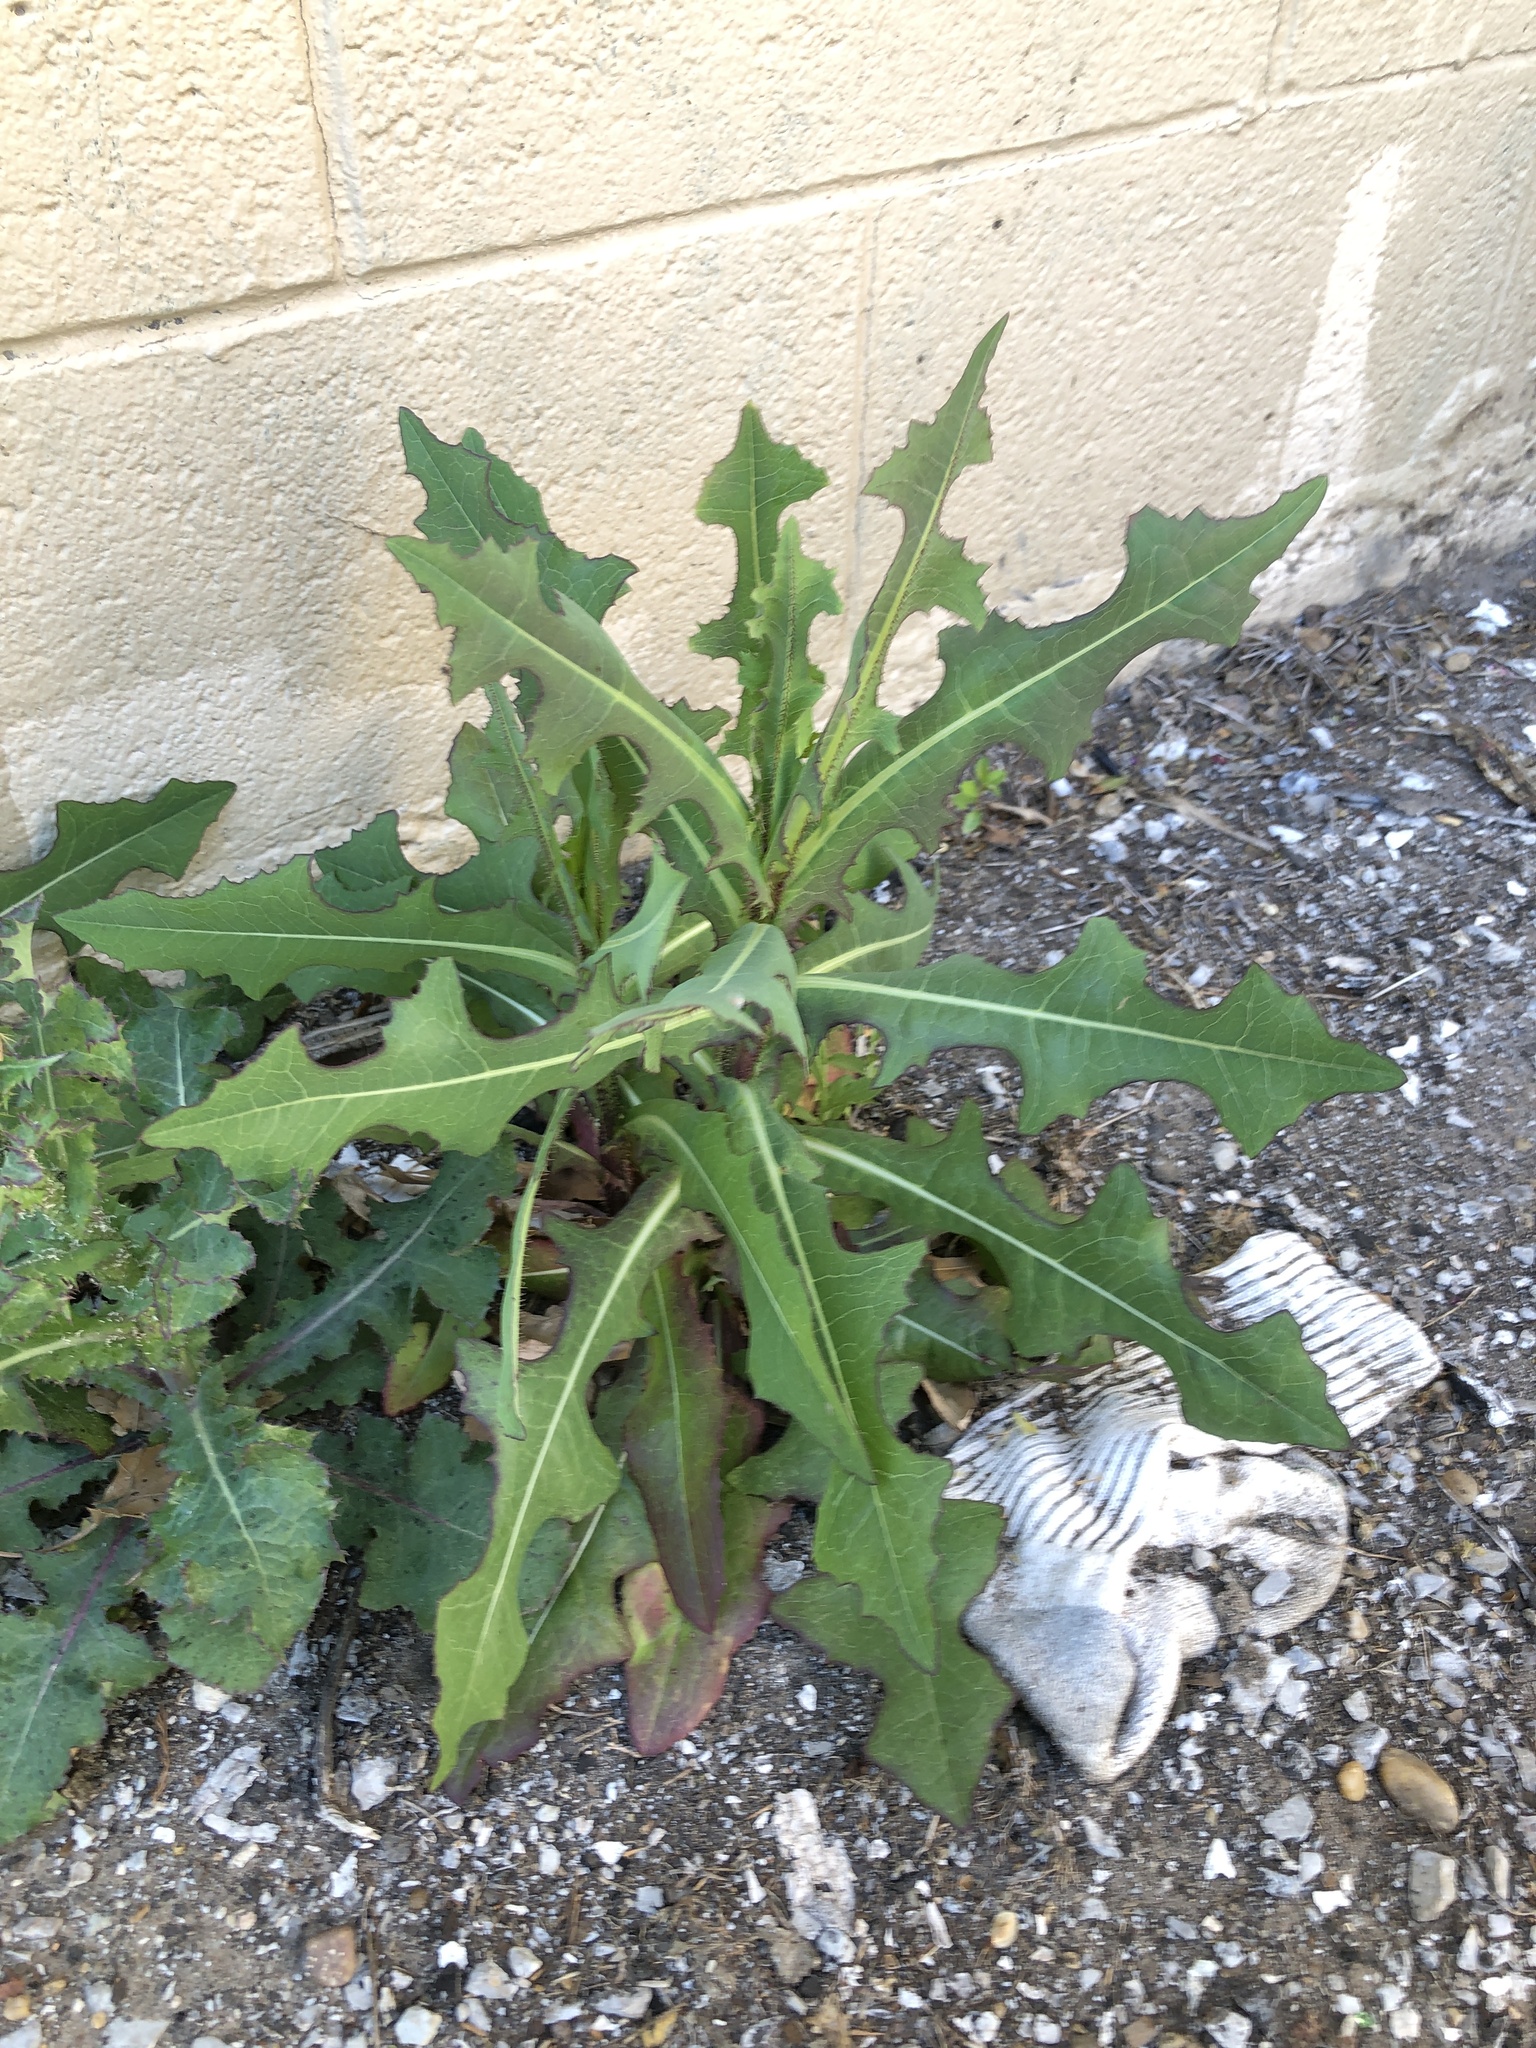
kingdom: Plantae
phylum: Tracheophyta
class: Magnoliopsida
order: Asterales
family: Asteraceae
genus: Lactuca
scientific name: Lactuca serriola
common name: Prickly lettuce
